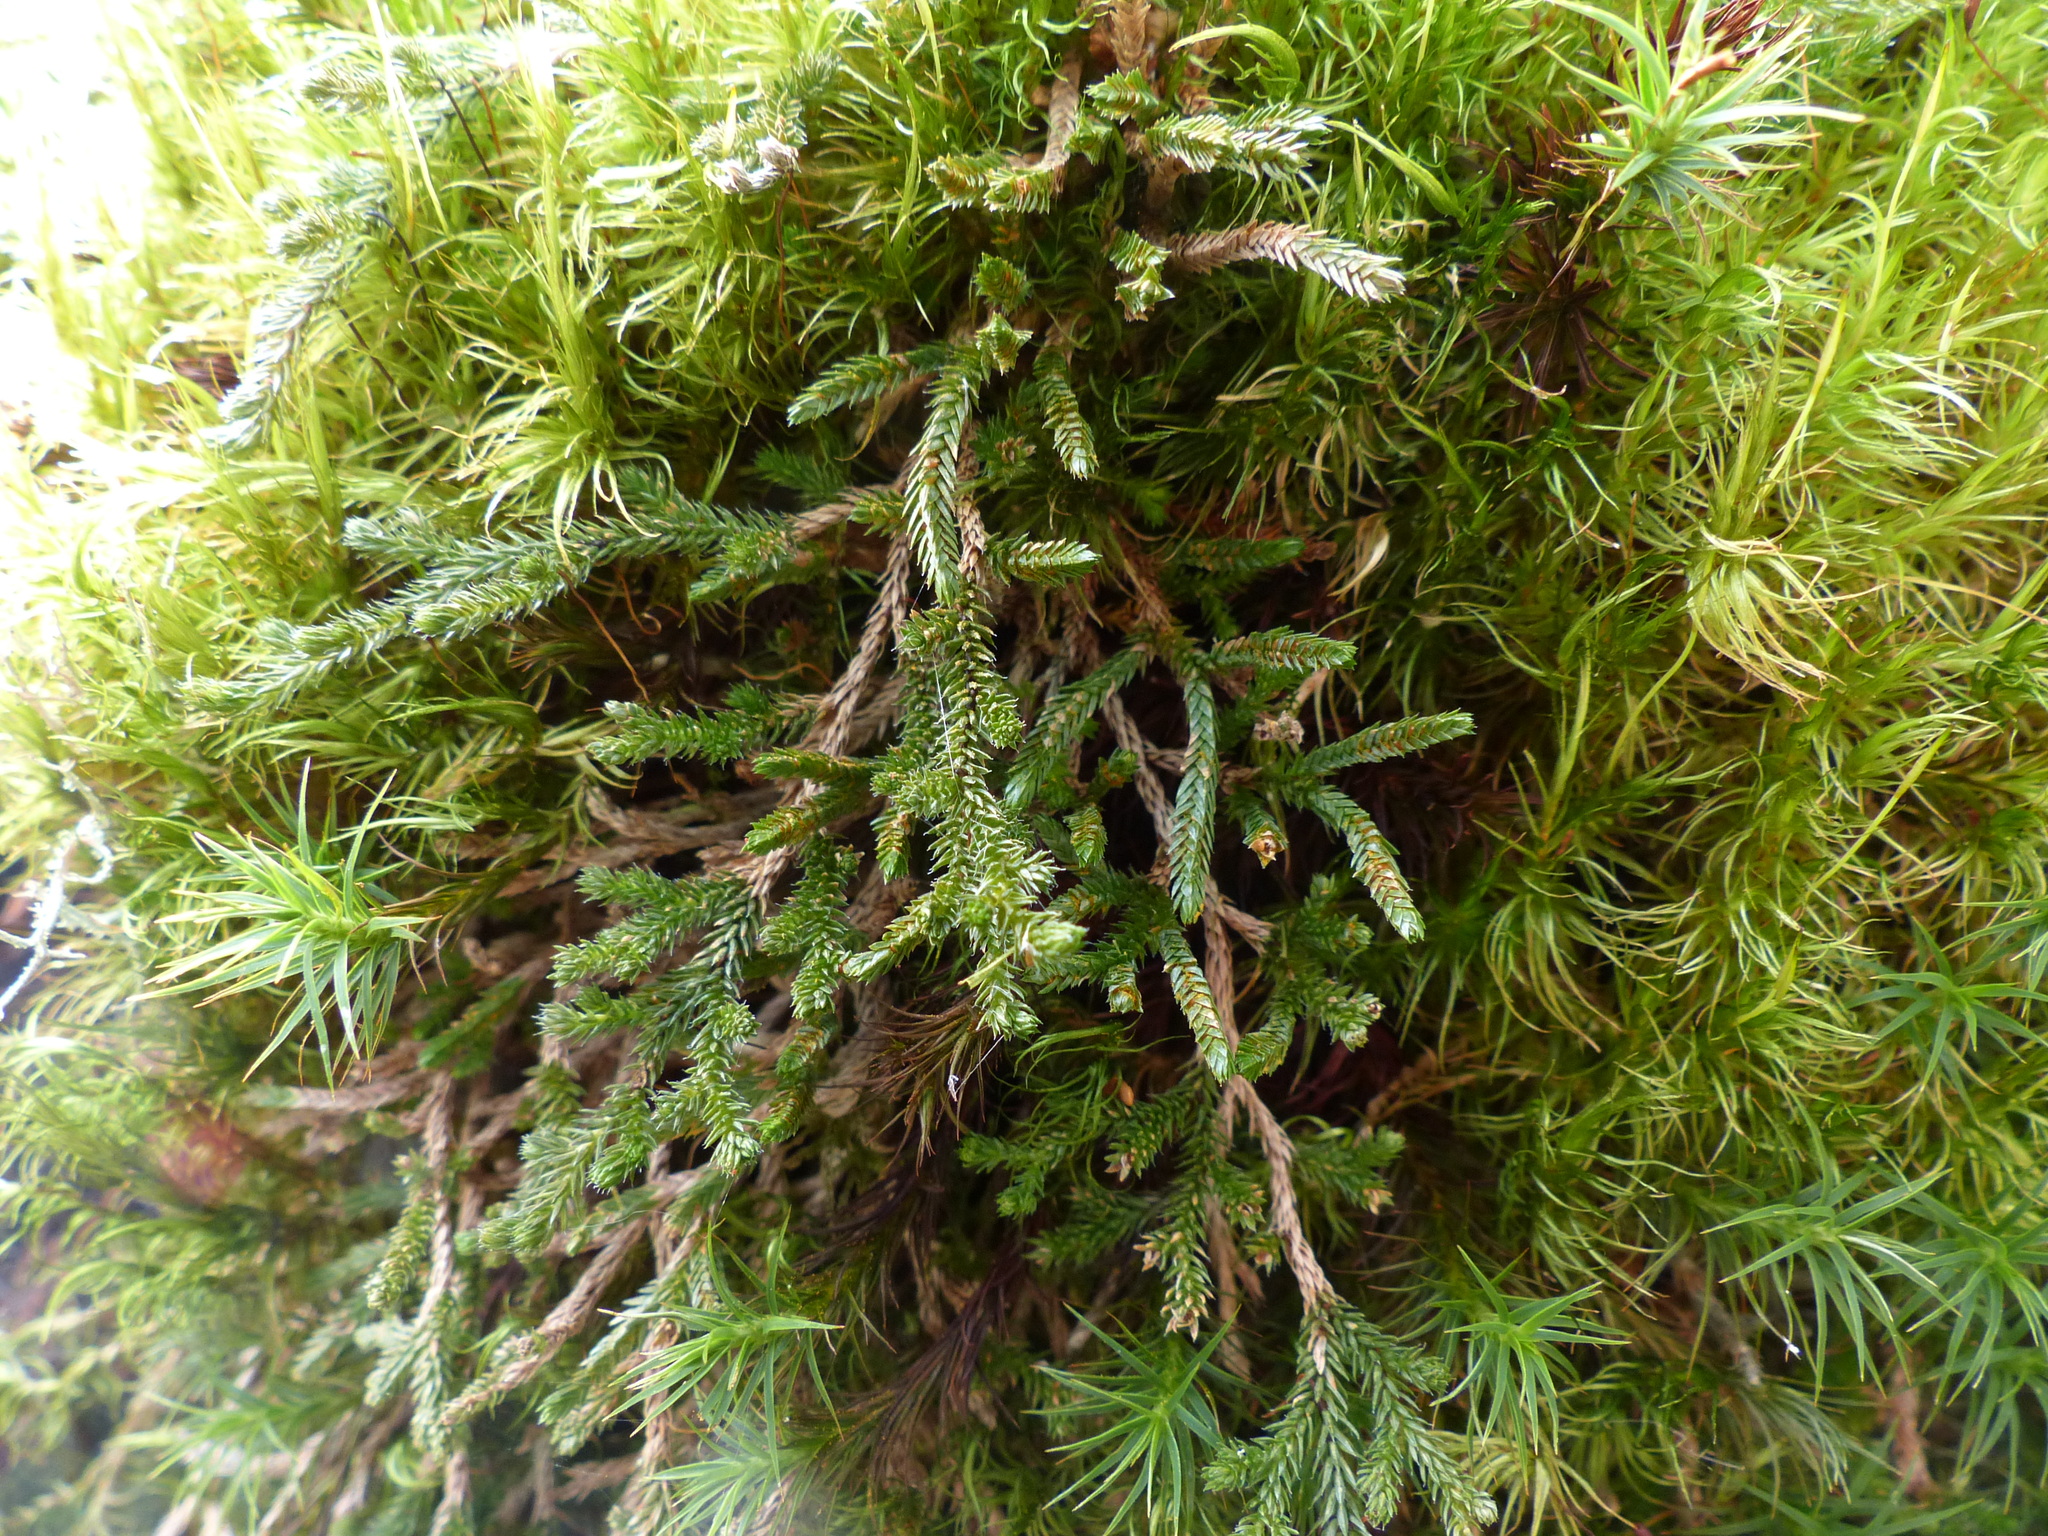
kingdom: Plantae
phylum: Tracheophyta
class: Lycopodiopsida
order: Selaginellales
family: Selaginellaceae
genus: Selaginella
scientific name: Selaginella wallacei
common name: Wallace's selaginella
